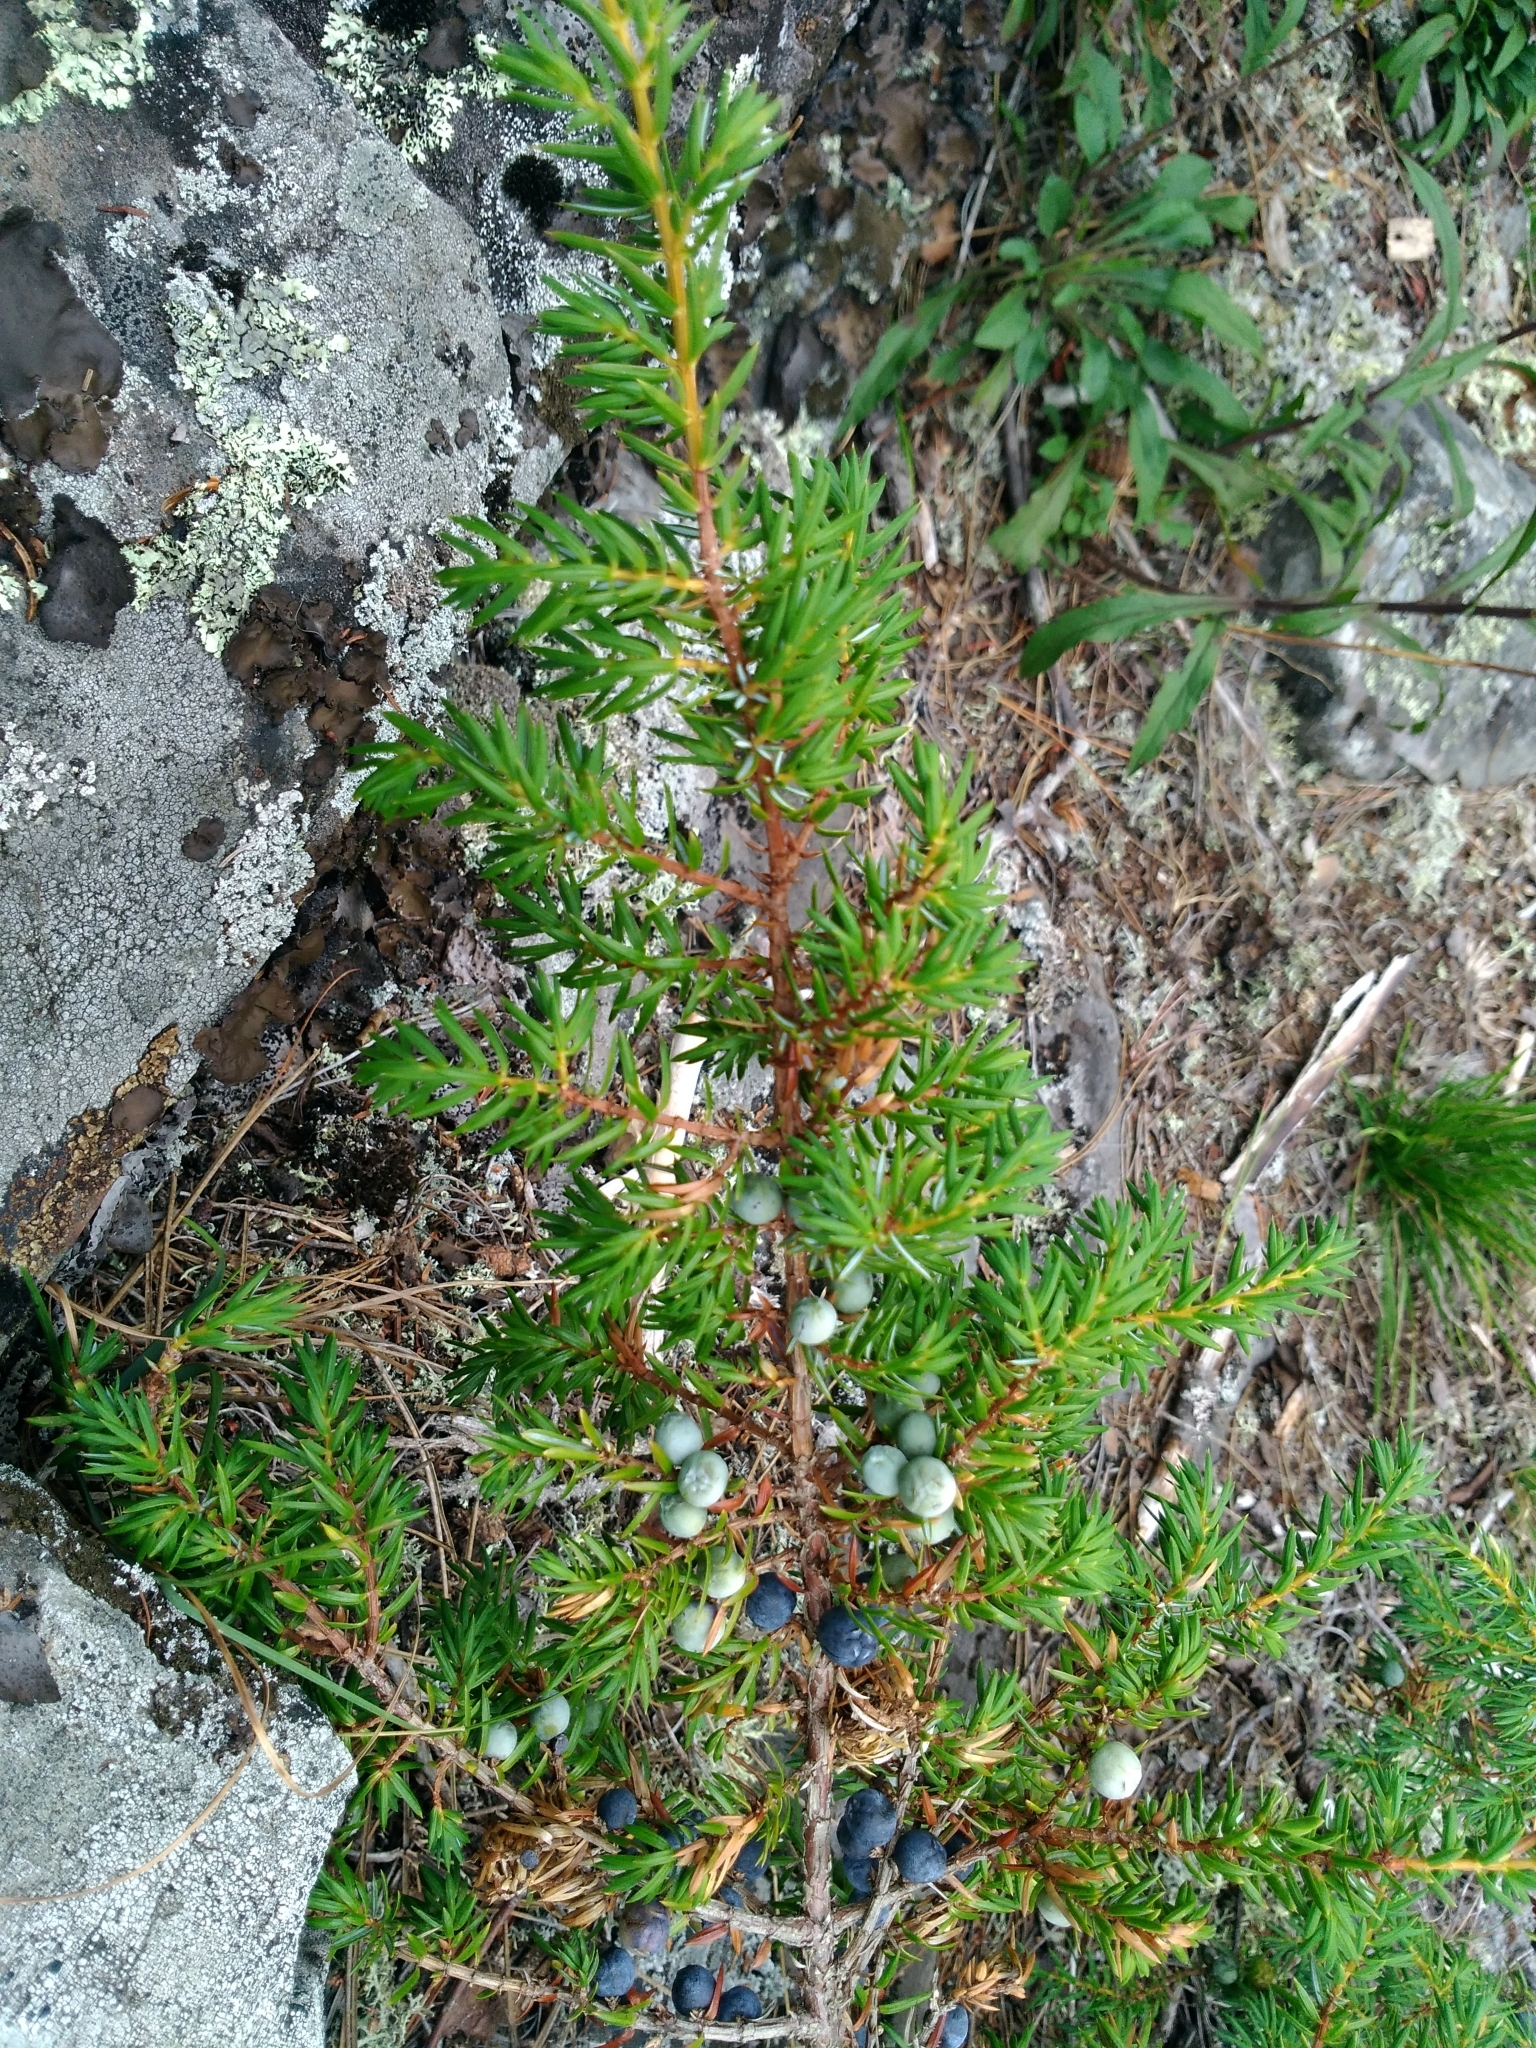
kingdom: Plantae
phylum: Tracheophyta
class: Pinopsida
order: Pinales
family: Cupressaceae
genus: Juniperus
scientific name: Juniperus communis
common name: Common juniper
